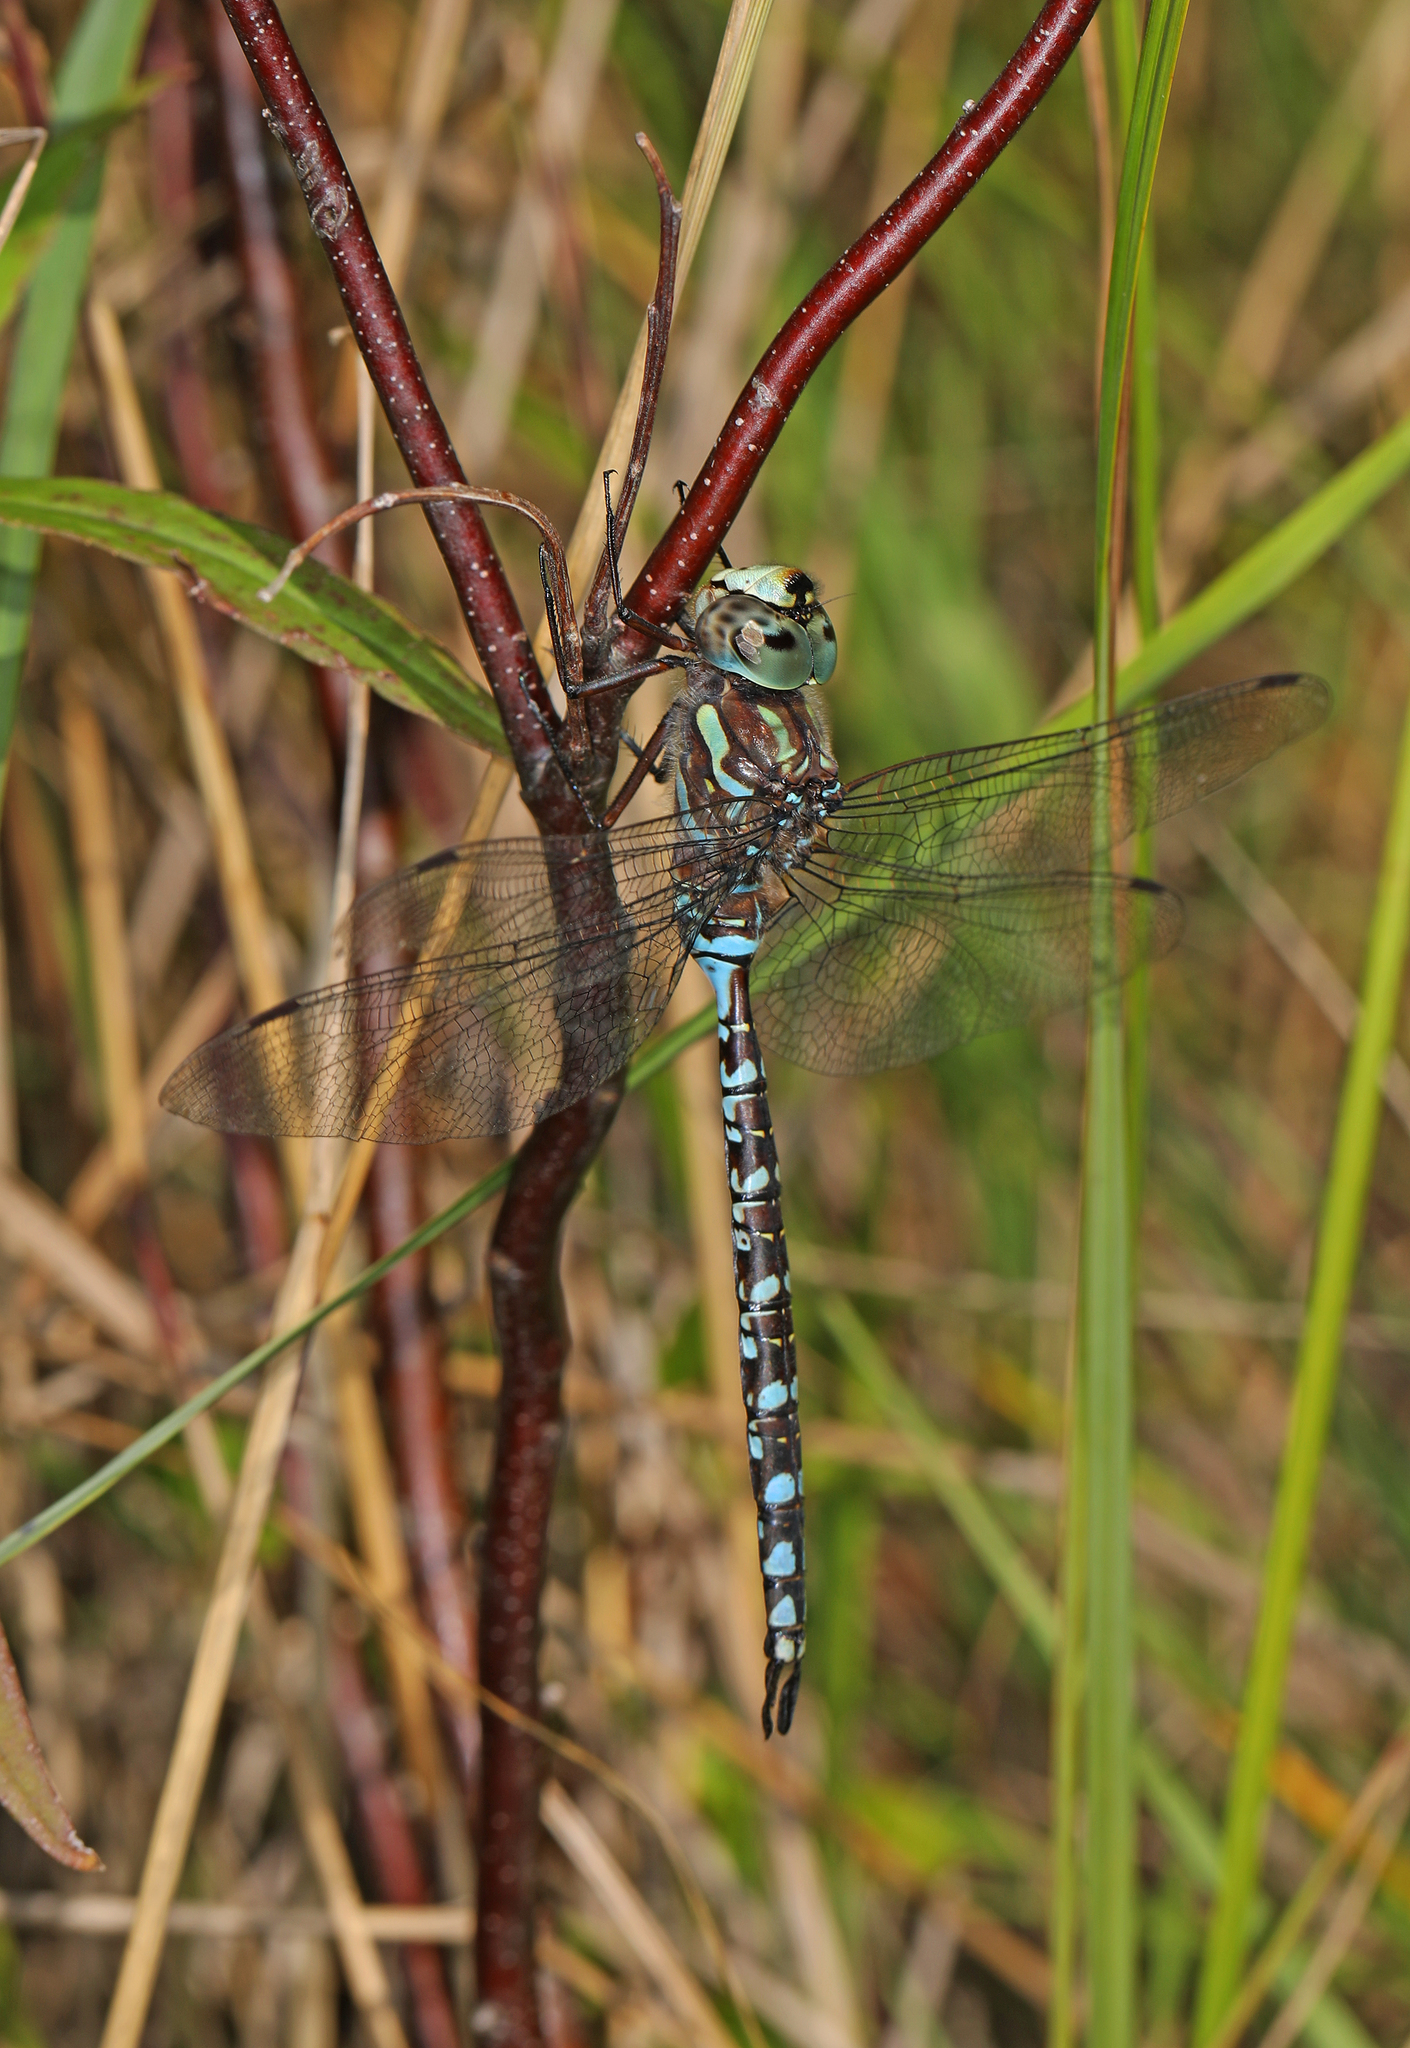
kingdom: Animalia
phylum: Arthropoda
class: Insecta
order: Odonata
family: Aeshnidae
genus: Aeshna
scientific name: Aeshna canadensis
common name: Canada darner
